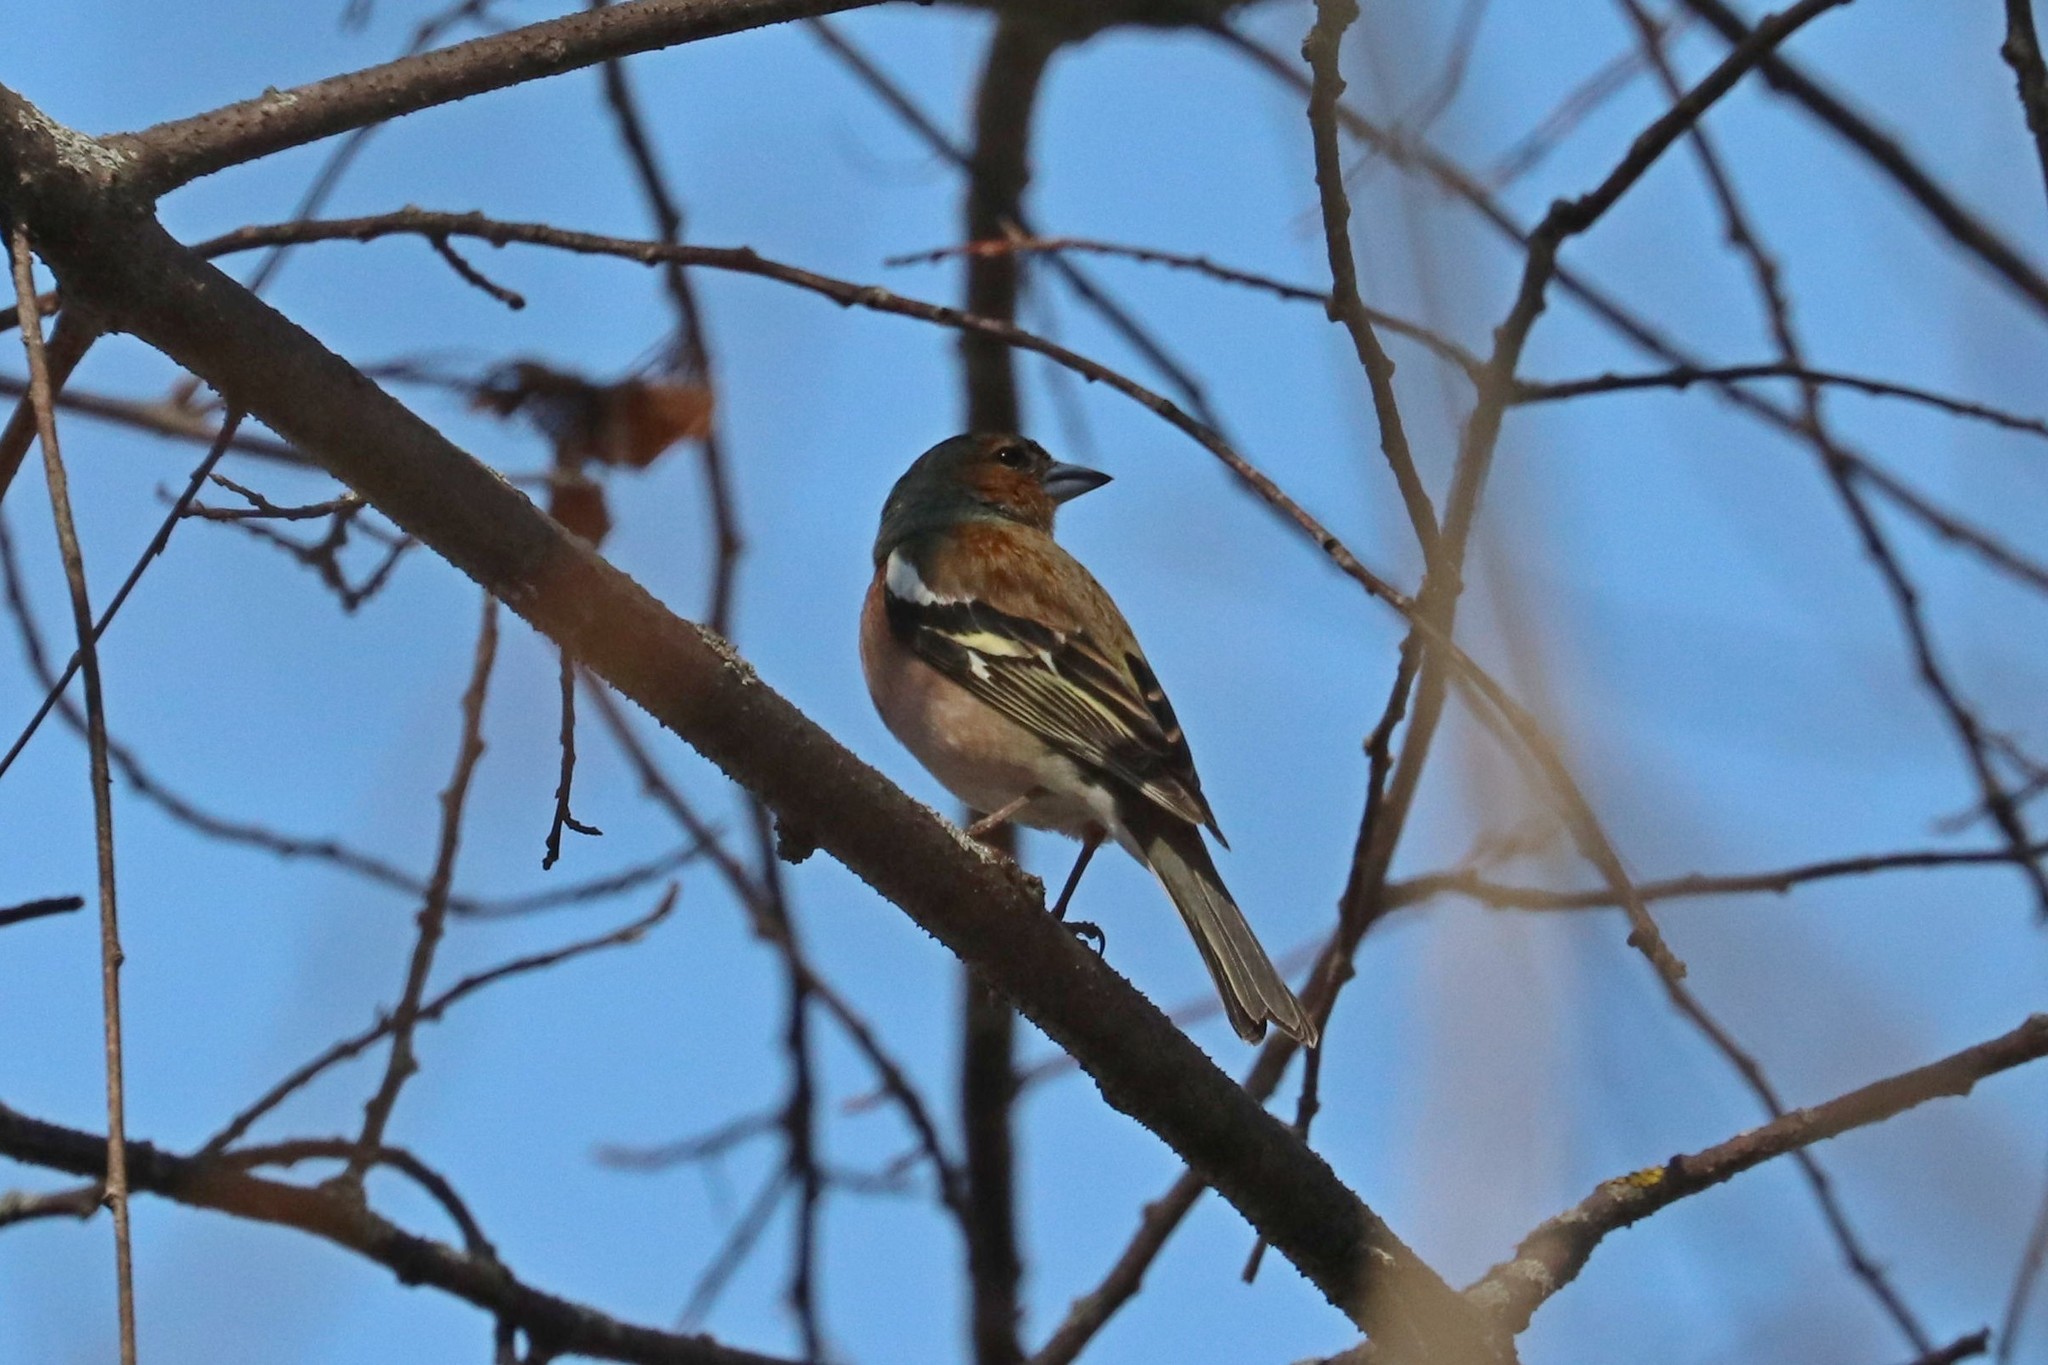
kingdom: Animalia
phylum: Chordata
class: Aves
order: Passeriformes
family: Fringillidae
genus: Fringilla
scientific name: Fringilla coelebs
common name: Common chaffinch
